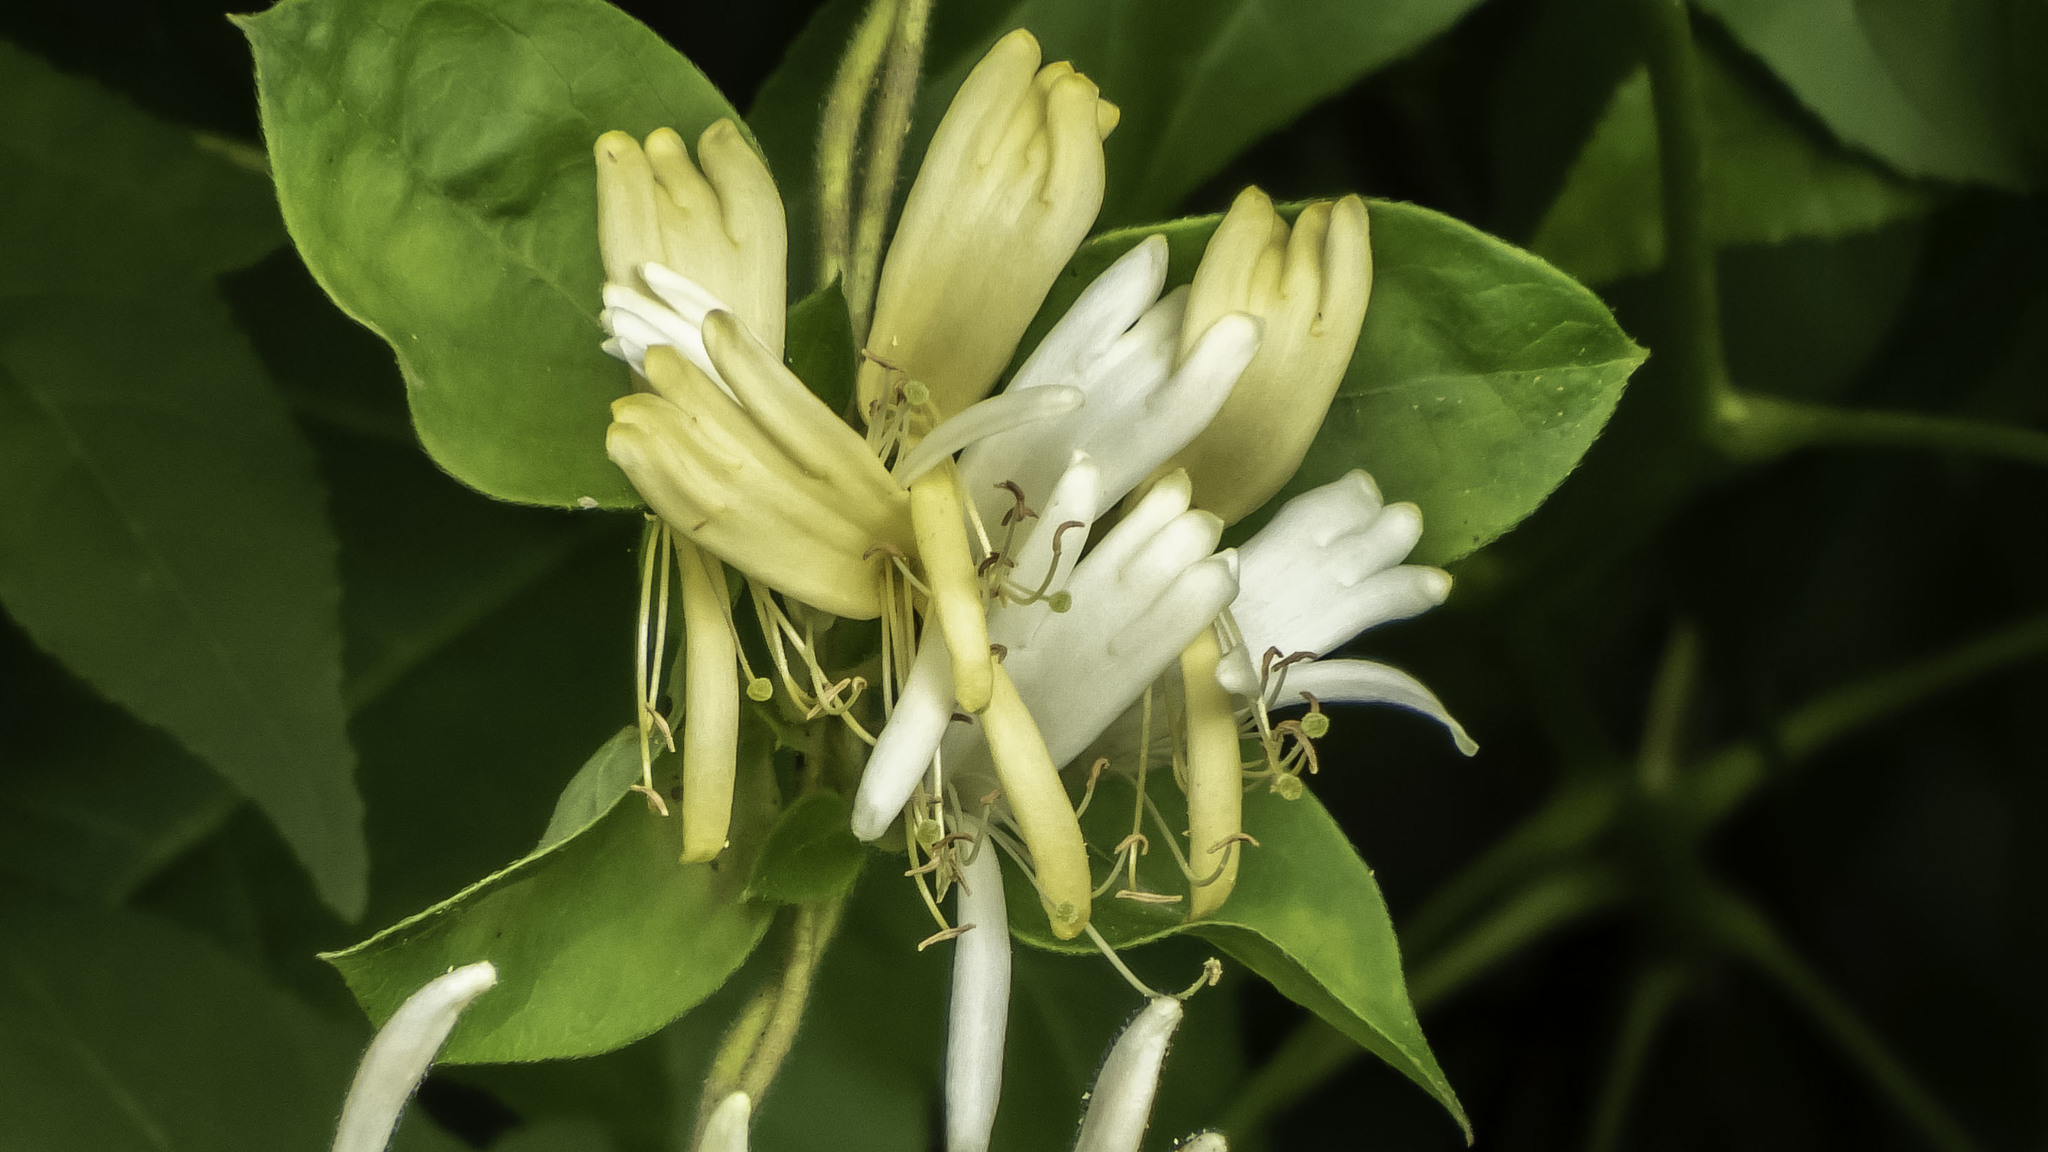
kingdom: Plantae
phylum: Tracheophyta
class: Magnoliopsida
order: Dipsacales
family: Caprifoliaceae
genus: Lonicera
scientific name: Lonicera japonica
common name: Japanese honeysuckle
